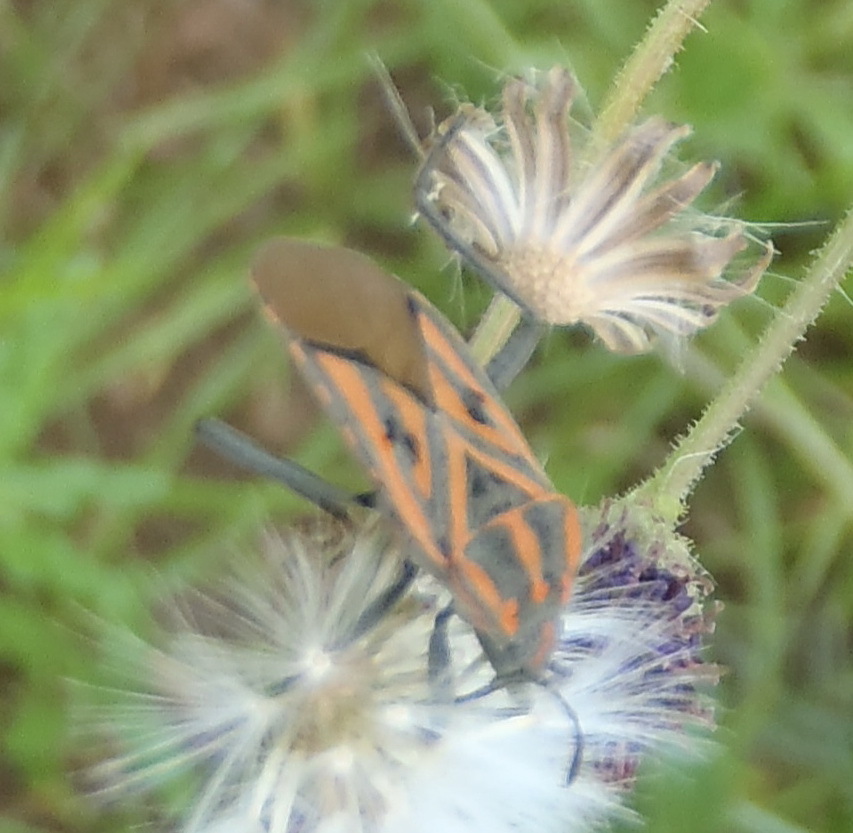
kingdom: Animalia
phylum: Arthropoda
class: Insecta
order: Hemiptera
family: Lygaeidae
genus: Spilostethus
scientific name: Spilostethus rivularis
